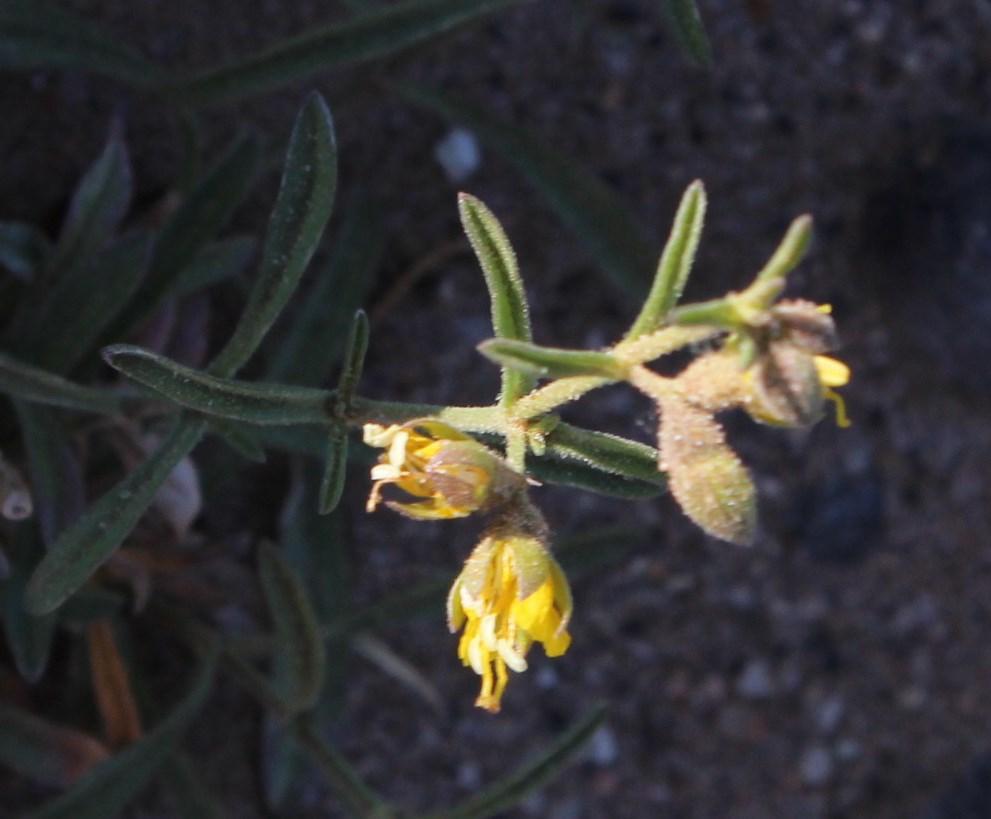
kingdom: Plantae
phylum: Tracheophyta
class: Magnoliopsida
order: Vahliales
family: Vahliaceae
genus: Vahlia
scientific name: Vahlia capensis
